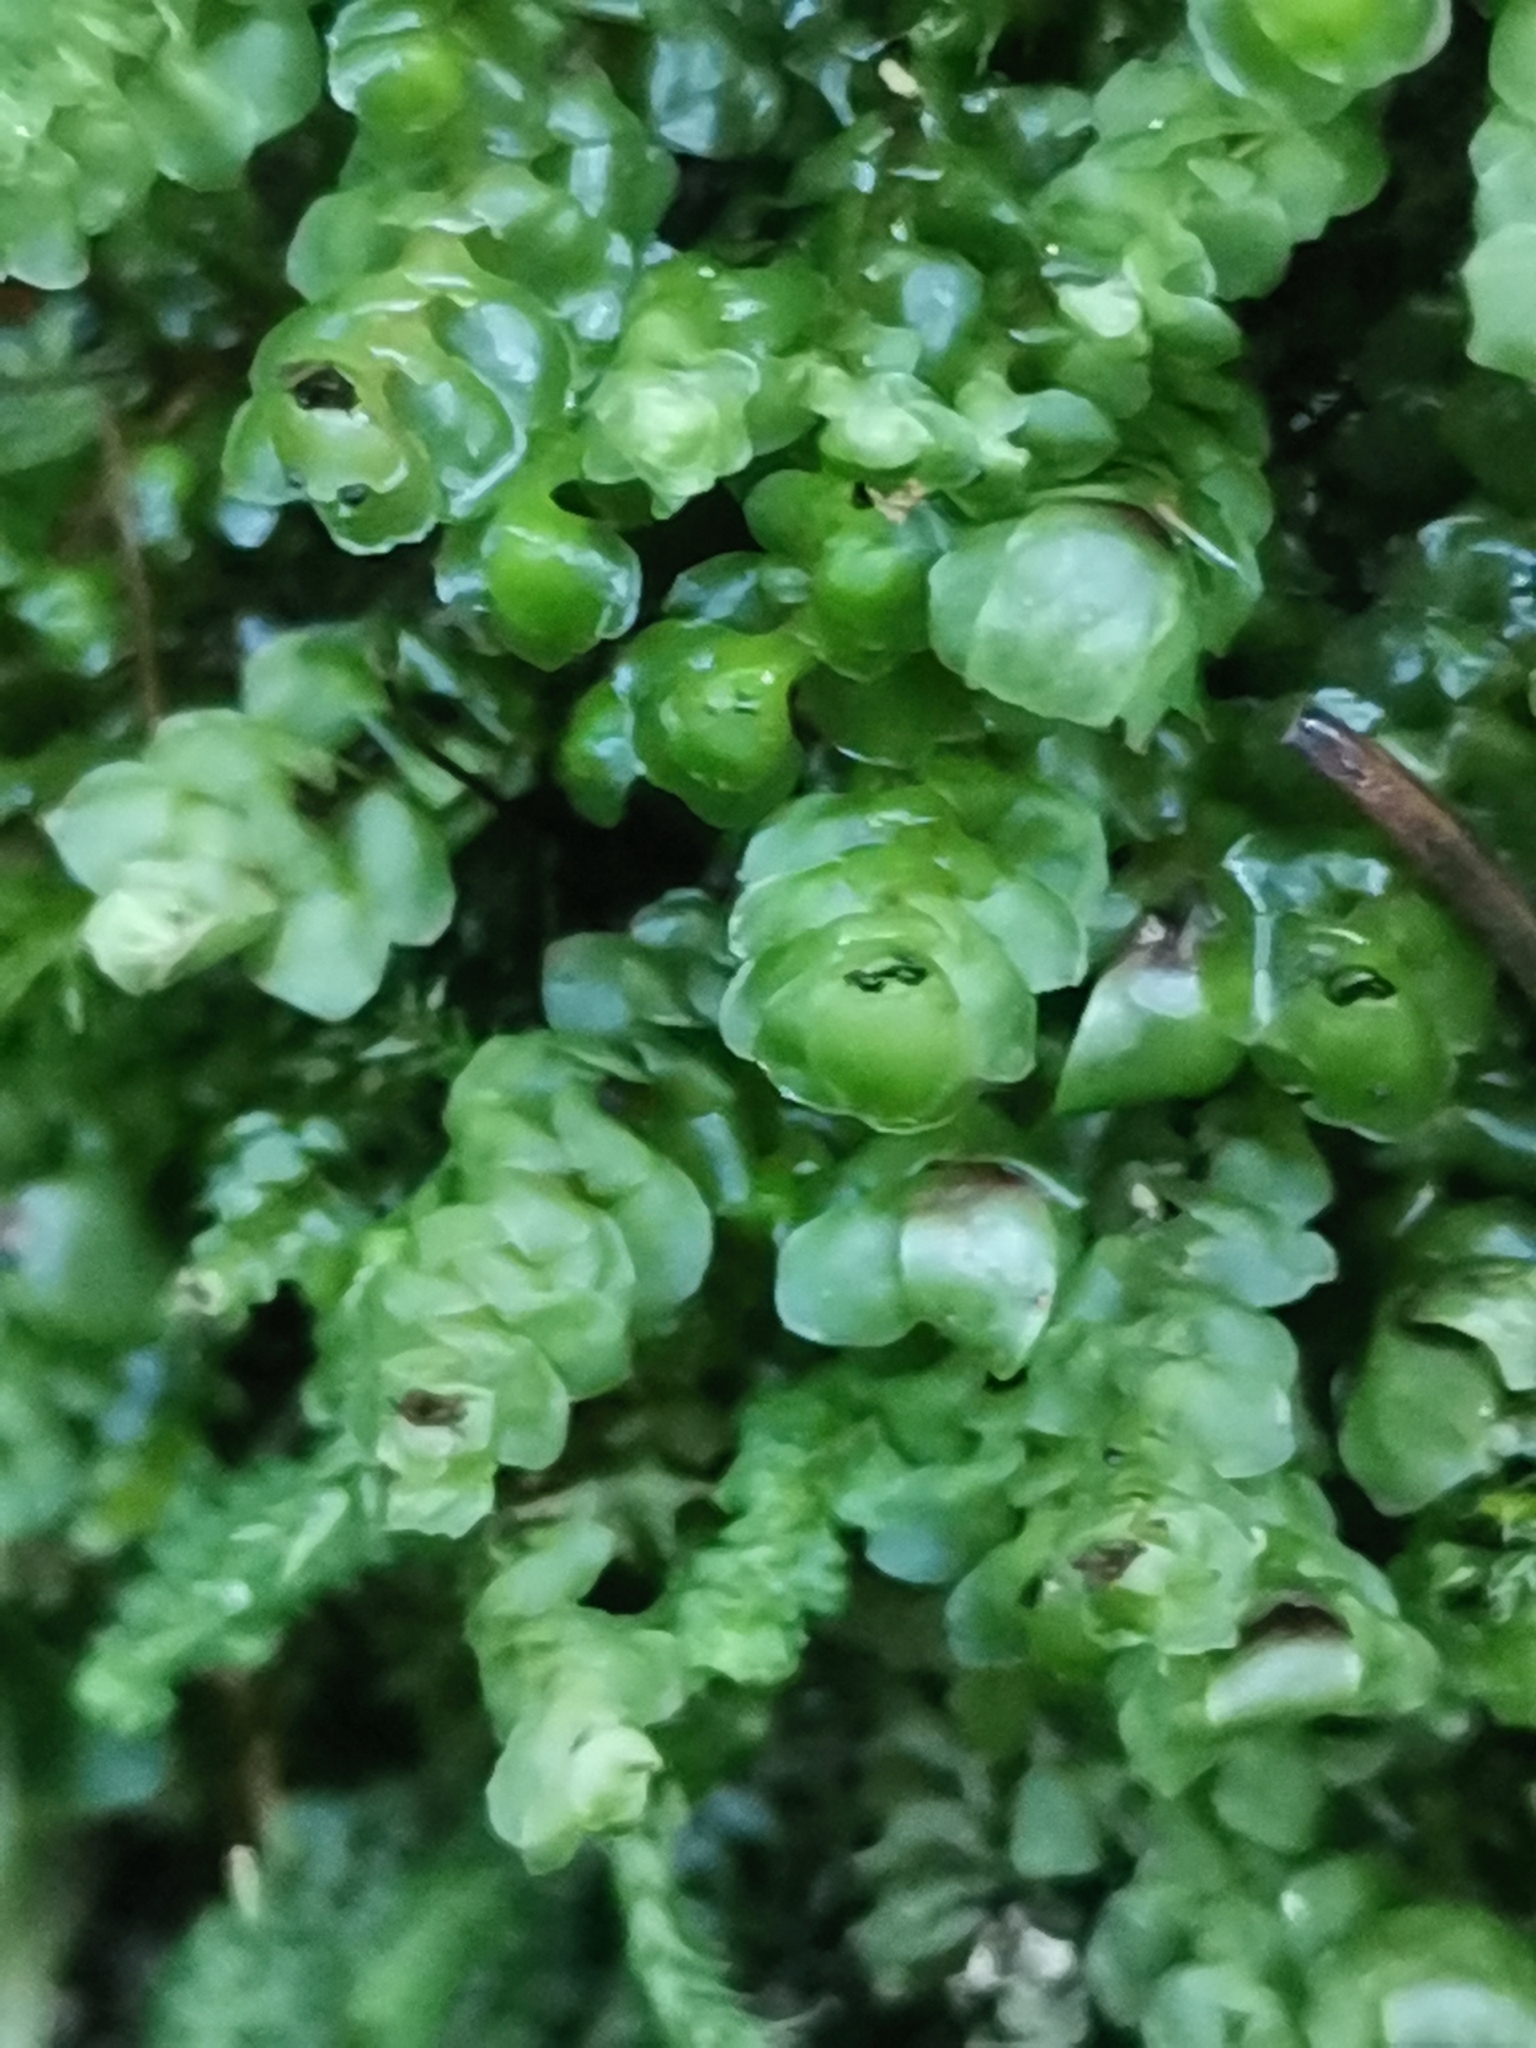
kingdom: Plantae
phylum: Marchantiophyta
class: Jungermanniopsida
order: Jungermanniales
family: Scapaniaceae
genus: Scapania
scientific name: Scapania nemorea
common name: Grove earwort
